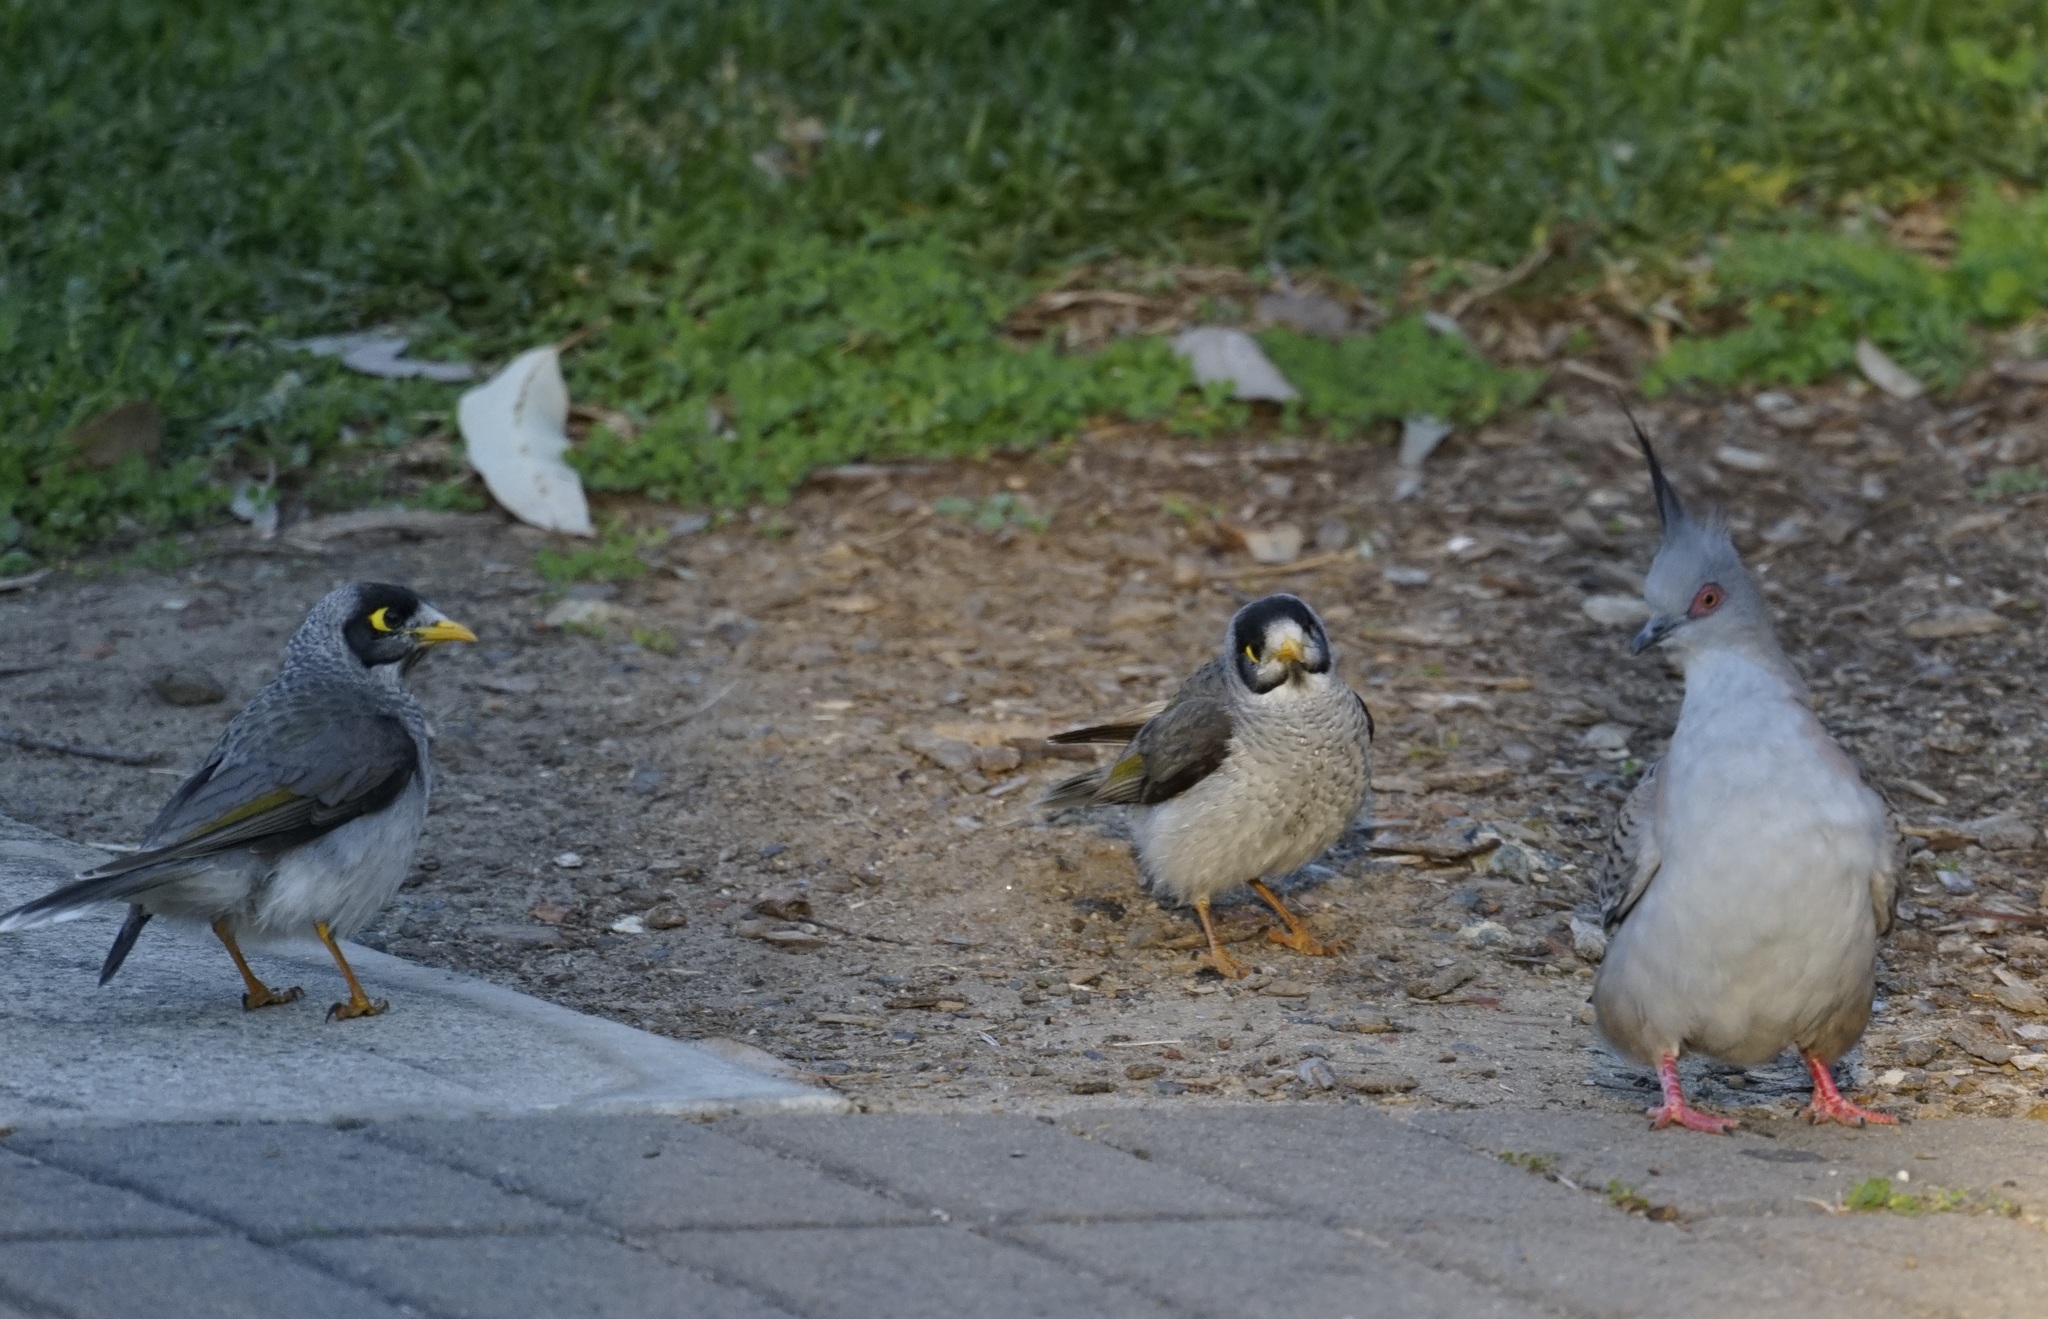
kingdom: Animalia
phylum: Chordata
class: Aves
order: Columbiformes
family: Columbidae
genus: Ocyphaps
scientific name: Ocyphaps lophotes
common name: Crested pigeon
